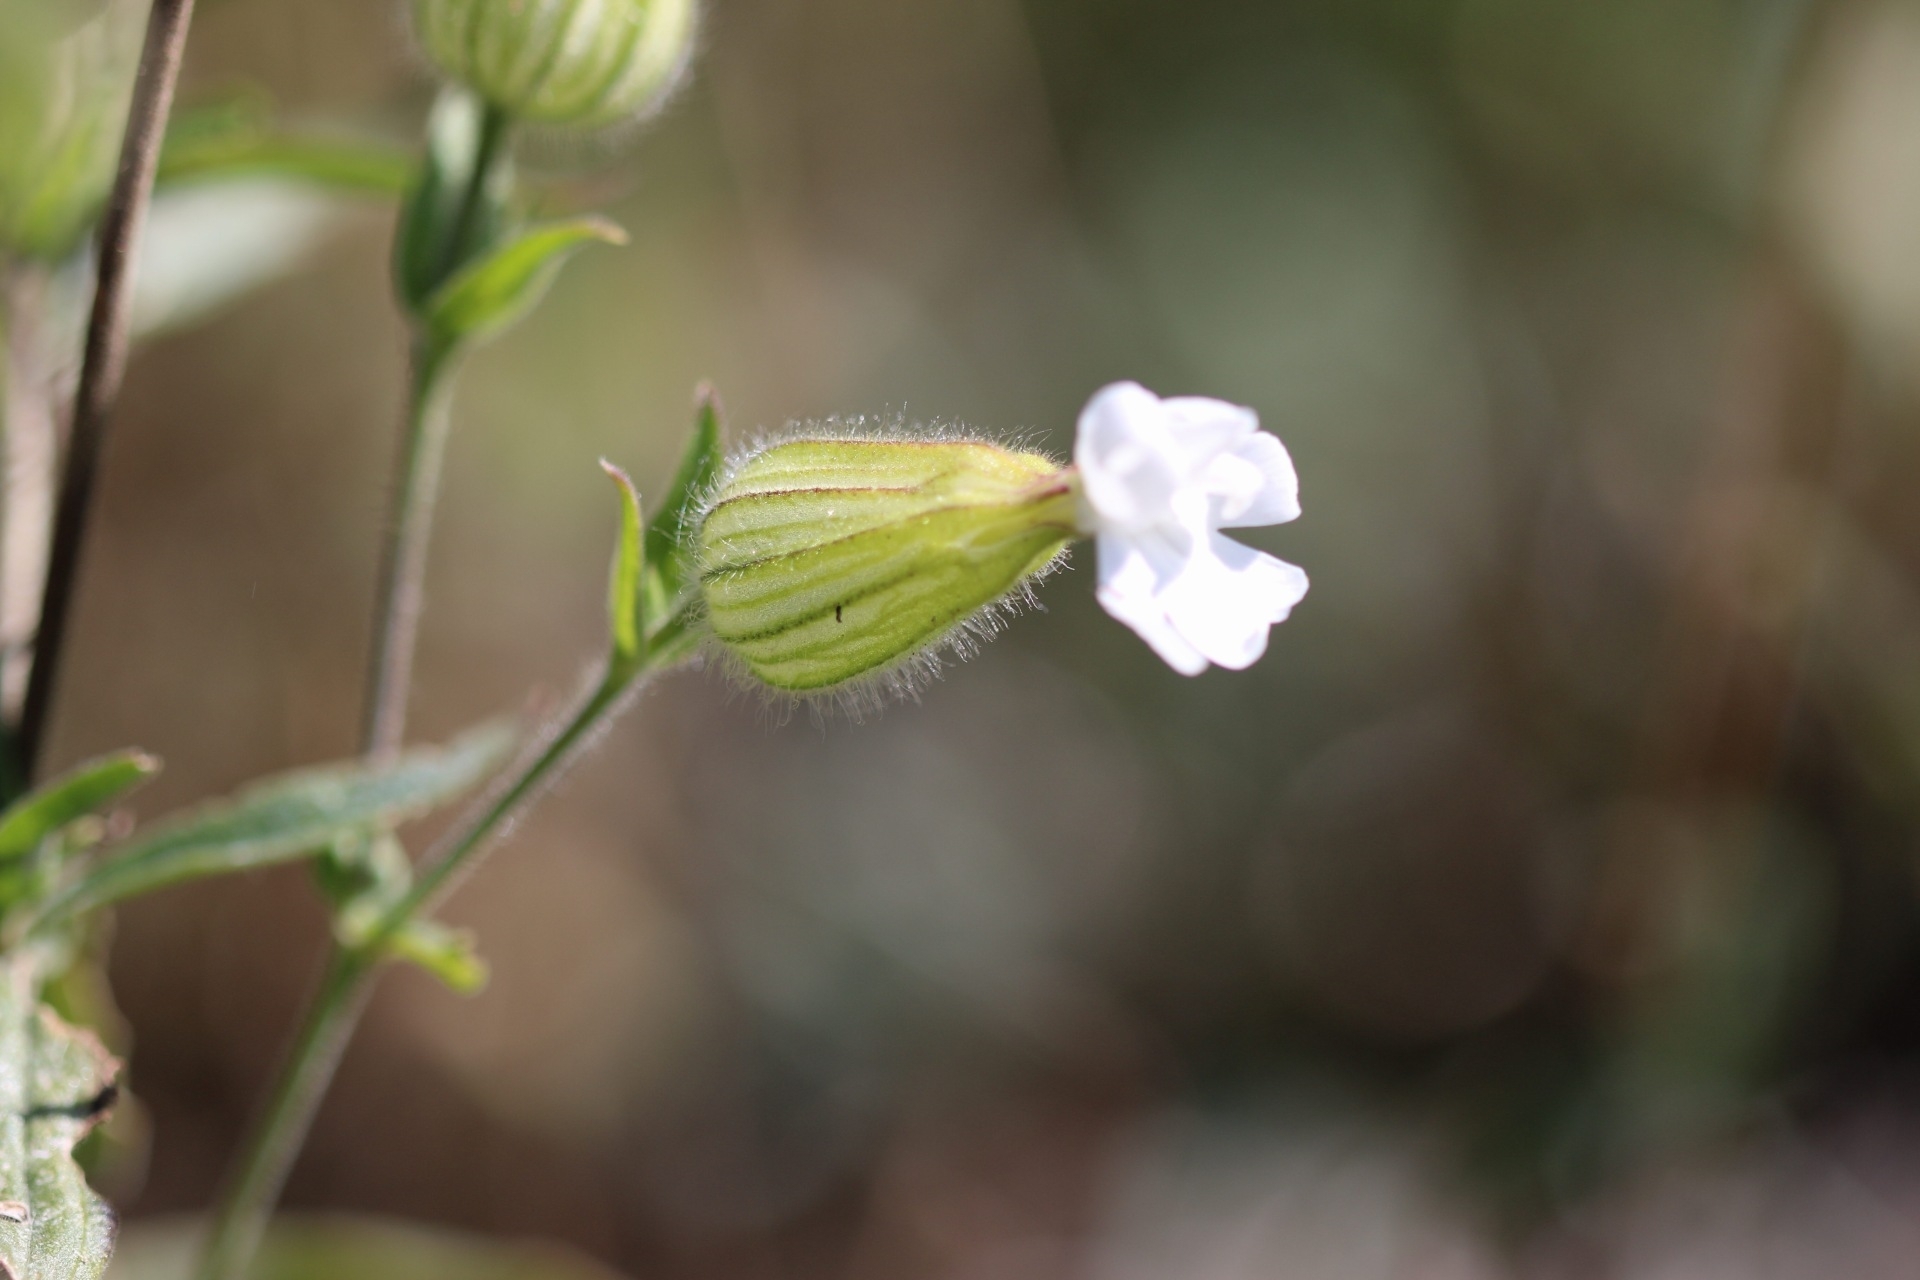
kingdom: Plantae
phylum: Tracheophyta
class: Magnoliopsida
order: Caryophyllales
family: Caryophyllaceae
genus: Silene
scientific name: Silene latifolia
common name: White campion
